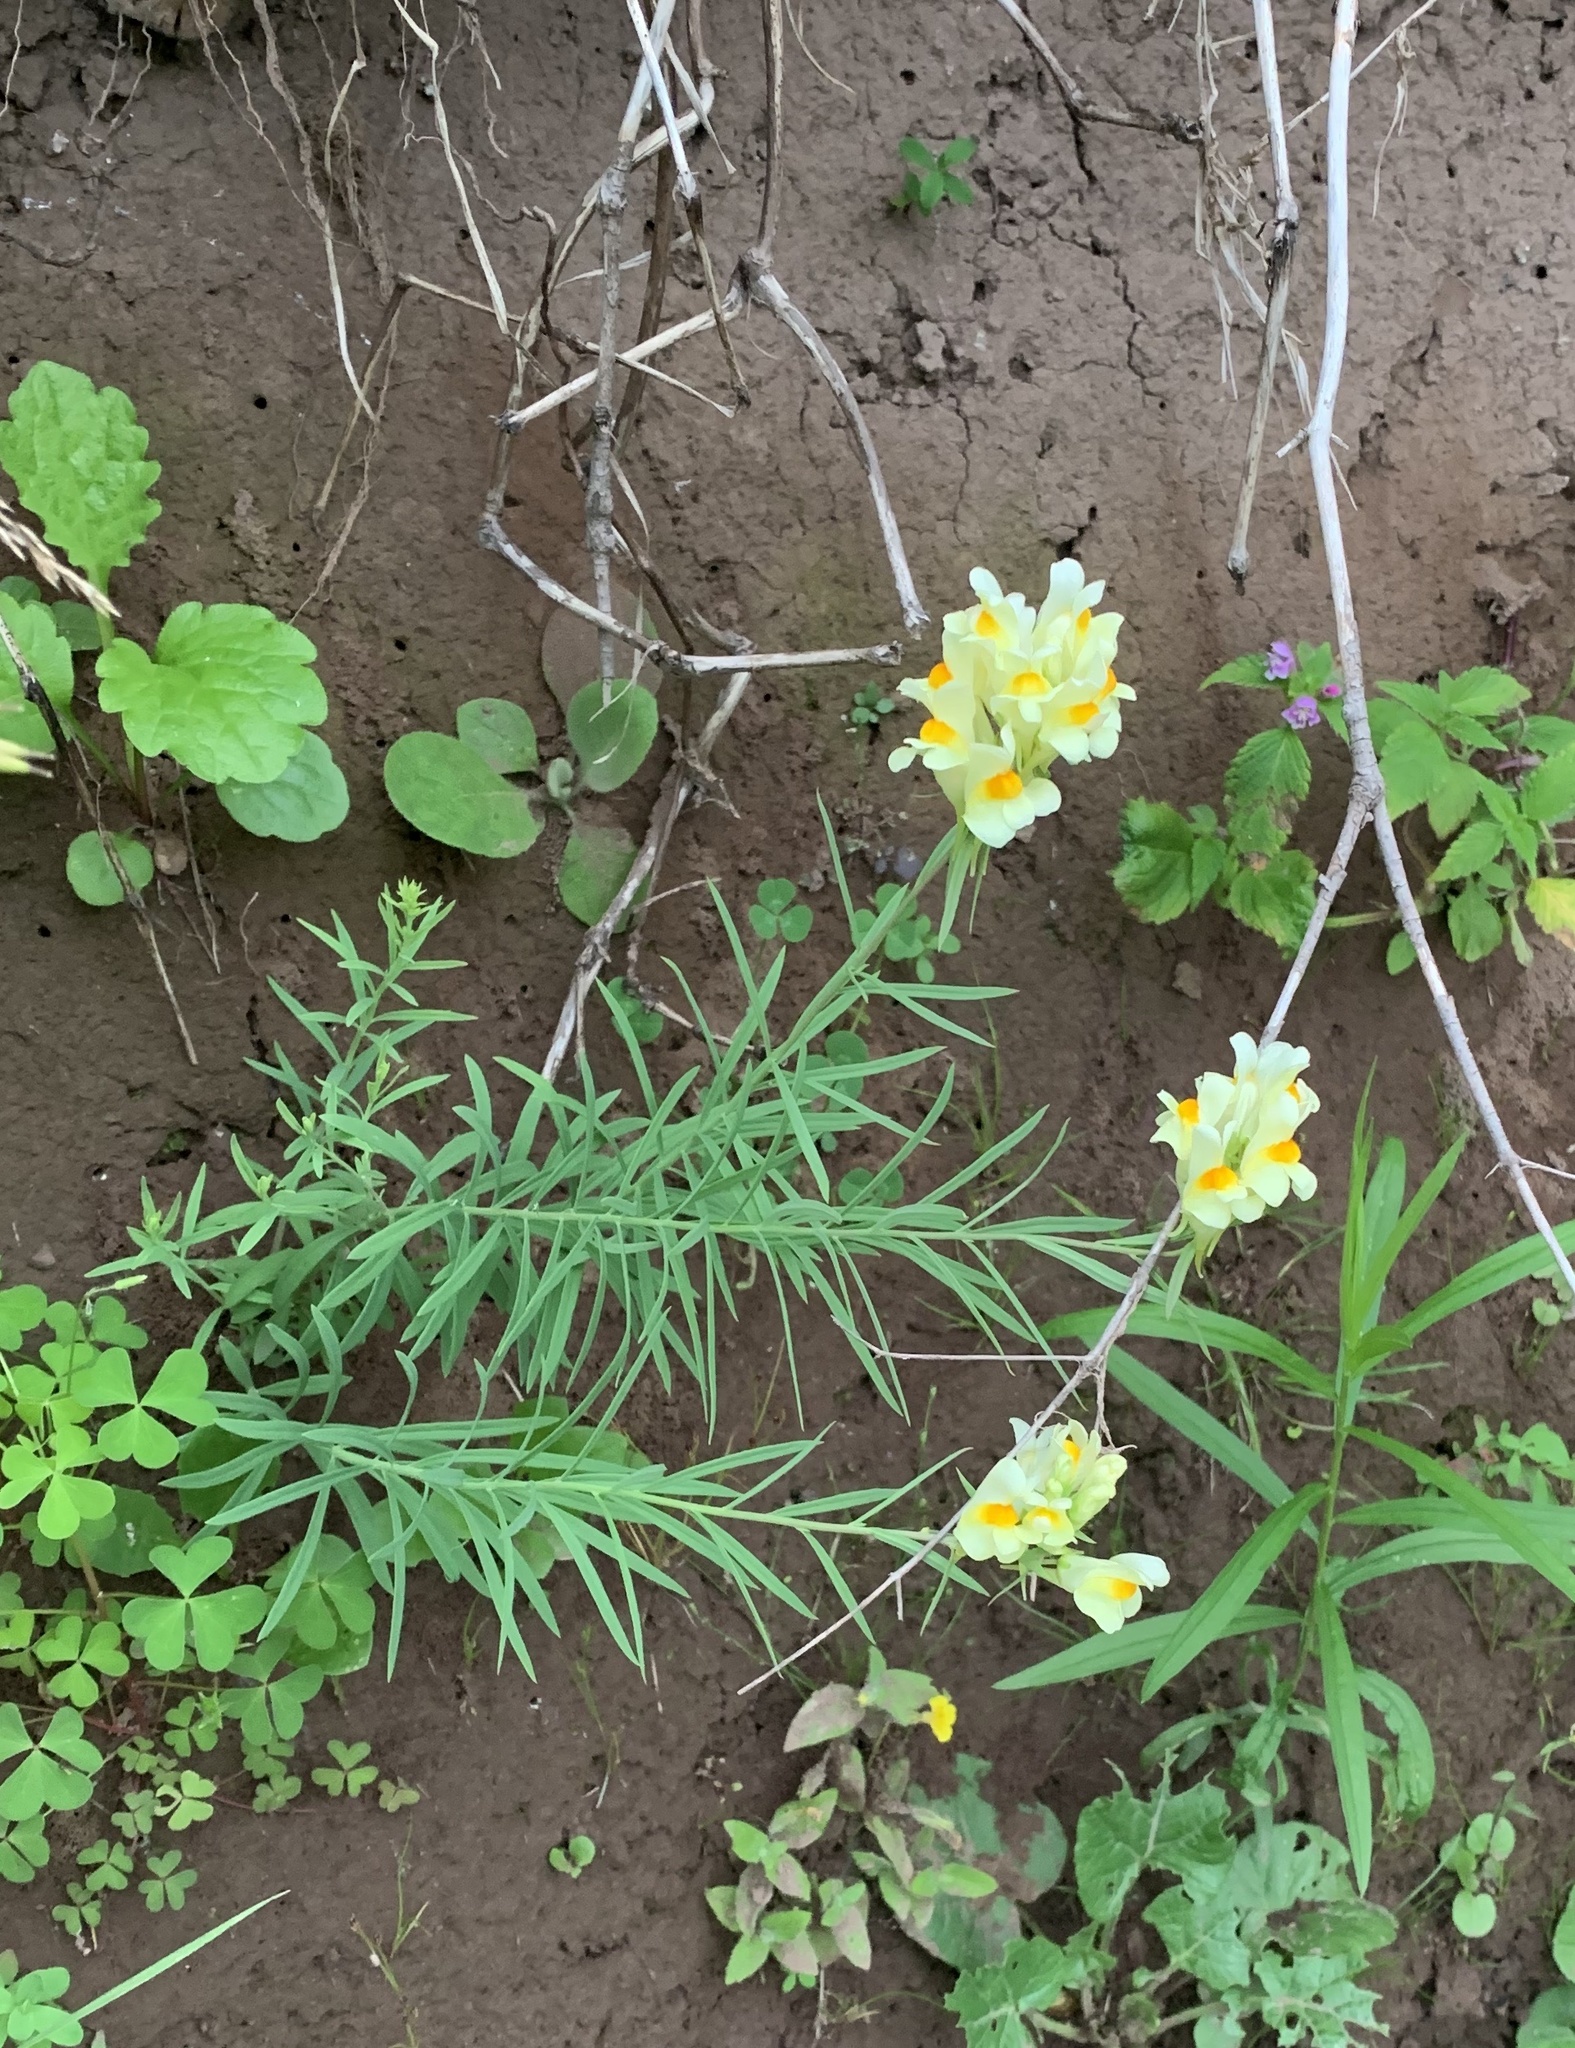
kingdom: Plantae
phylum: Tracheophyta
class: Magnoliopsida
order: Lamiales
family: Plantaginaceae
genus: Linaria
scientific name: Linaria vulgaris
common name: Butter and eggs
